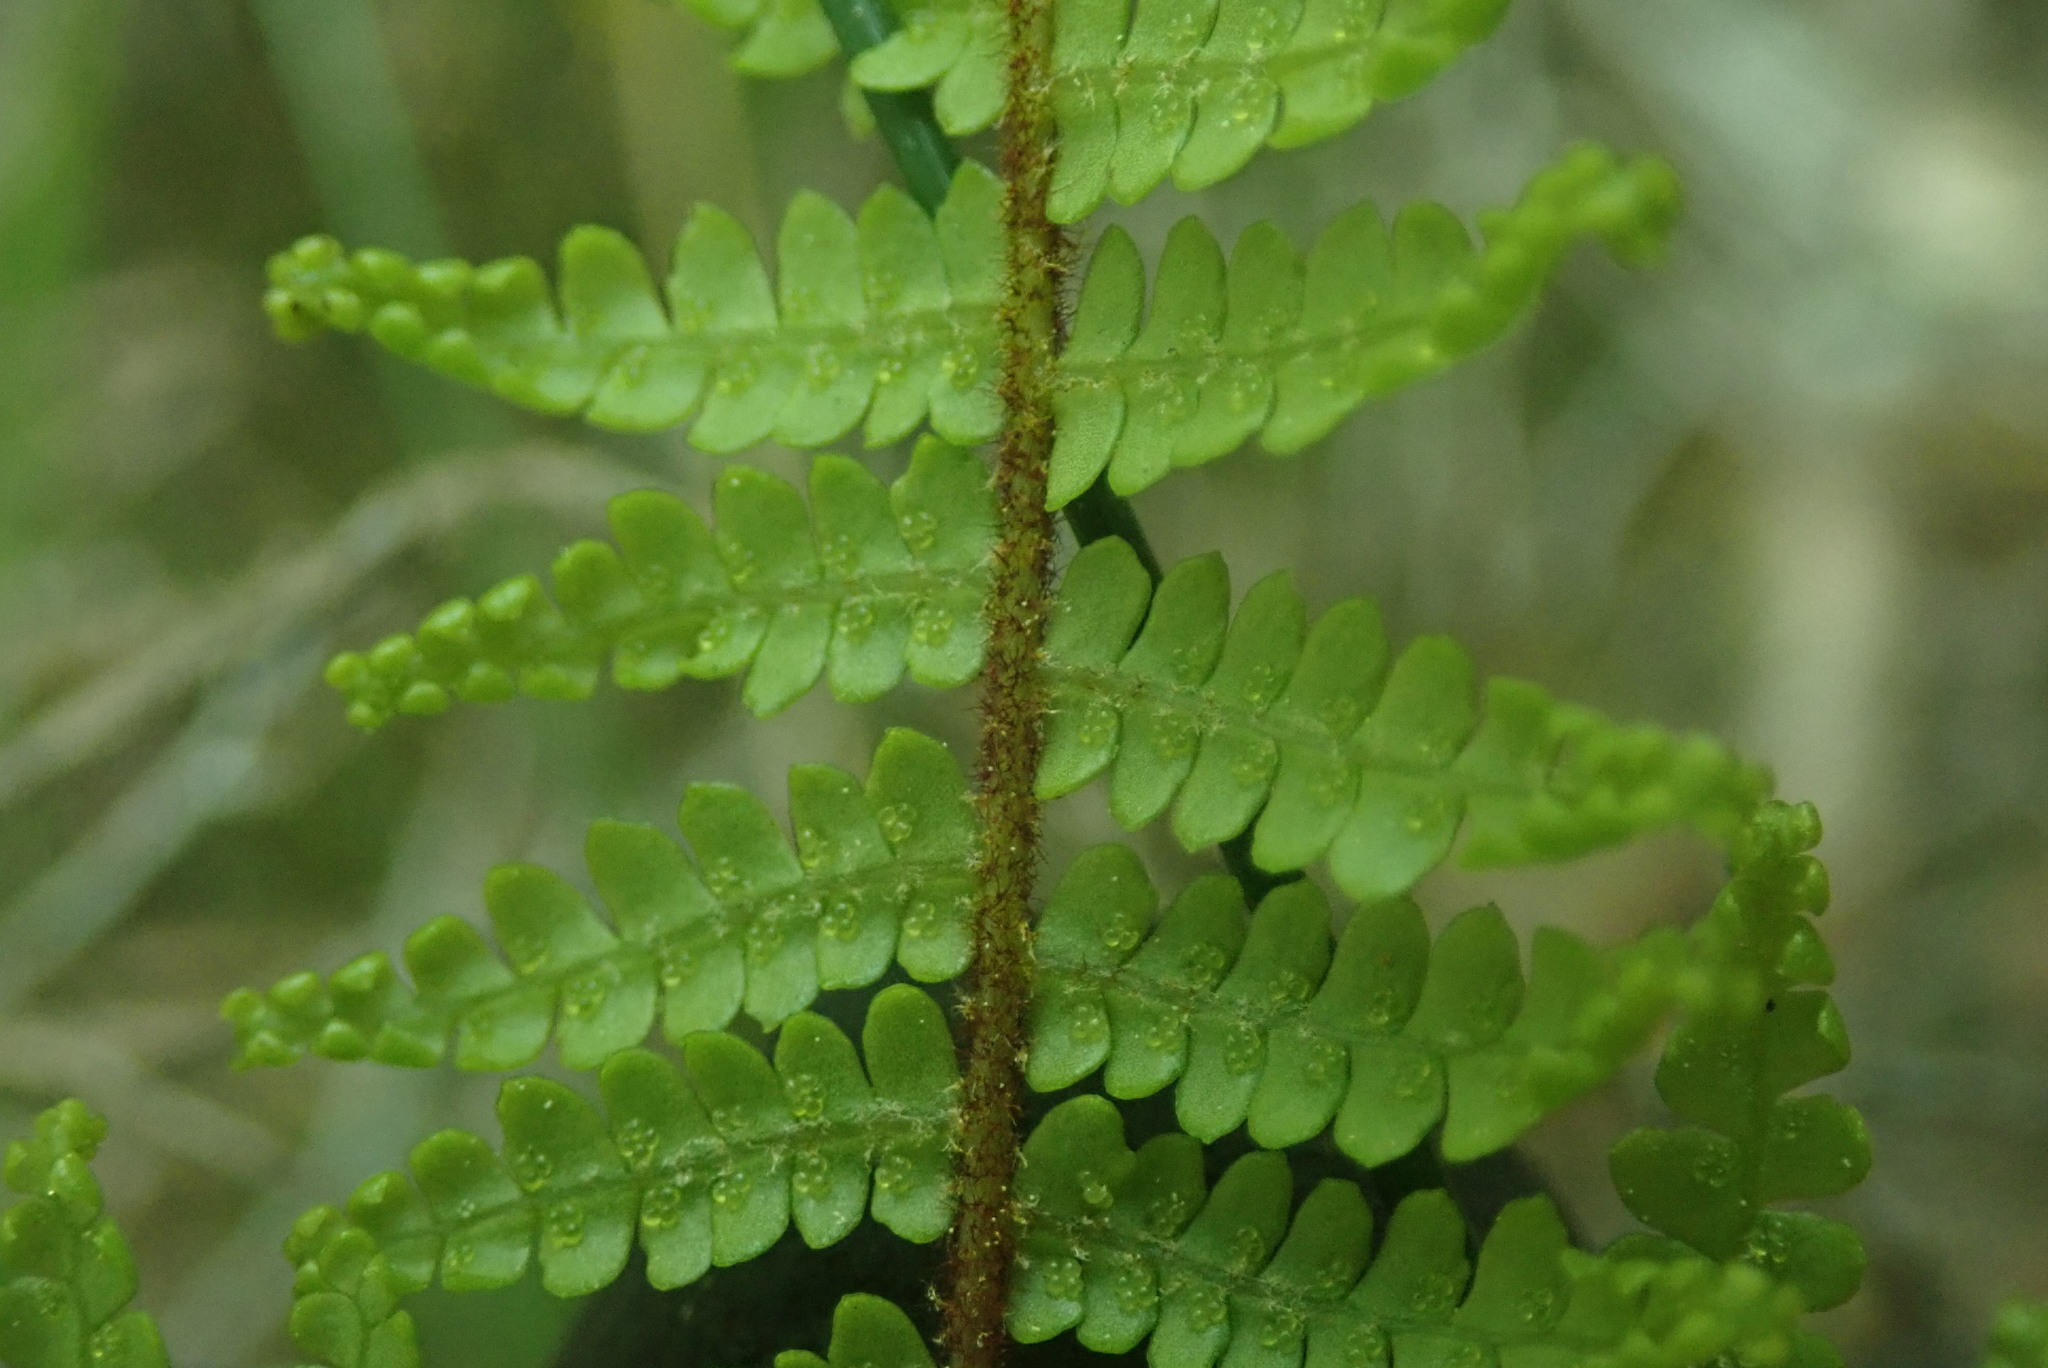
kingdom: Plantae
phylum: Tracheophyta
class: Polypodiopsida
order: Gleicheniales
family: Gleicheniaceae
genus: Gleichenia
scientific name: Gleichenia microphylla
